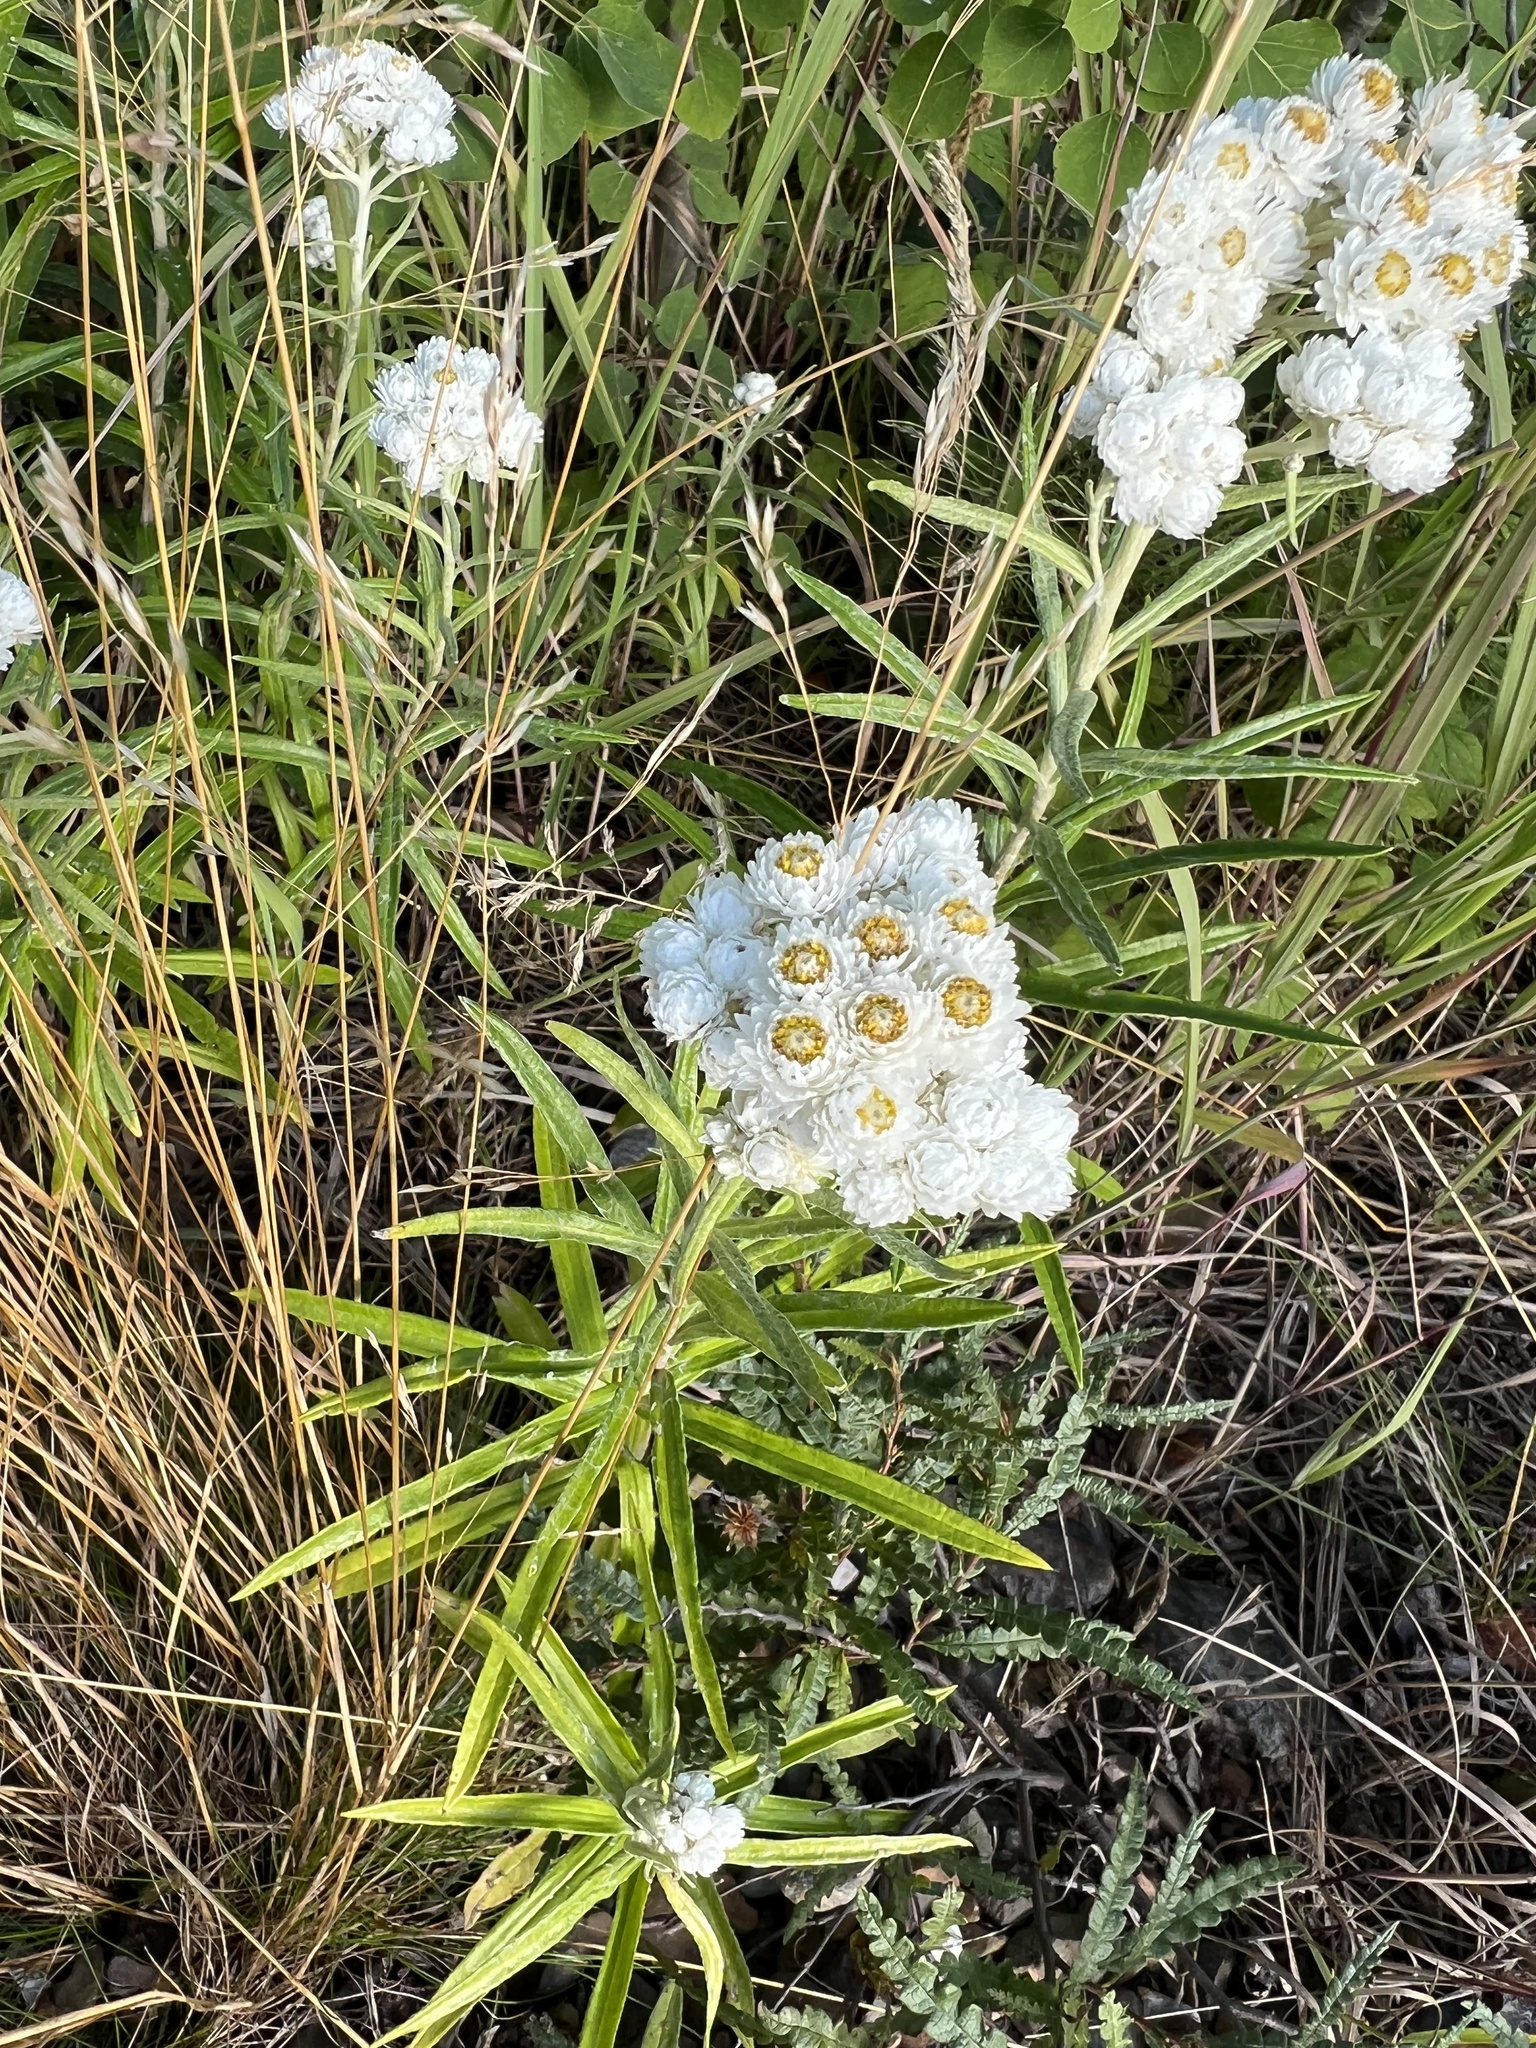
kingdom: Plantae
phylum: Tracheophyta
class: Magnoliopsida
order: Asterales
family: Asteraceae
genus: Anaphalis
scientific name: Anaphalis margaritacea
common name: Pearly everlasting
